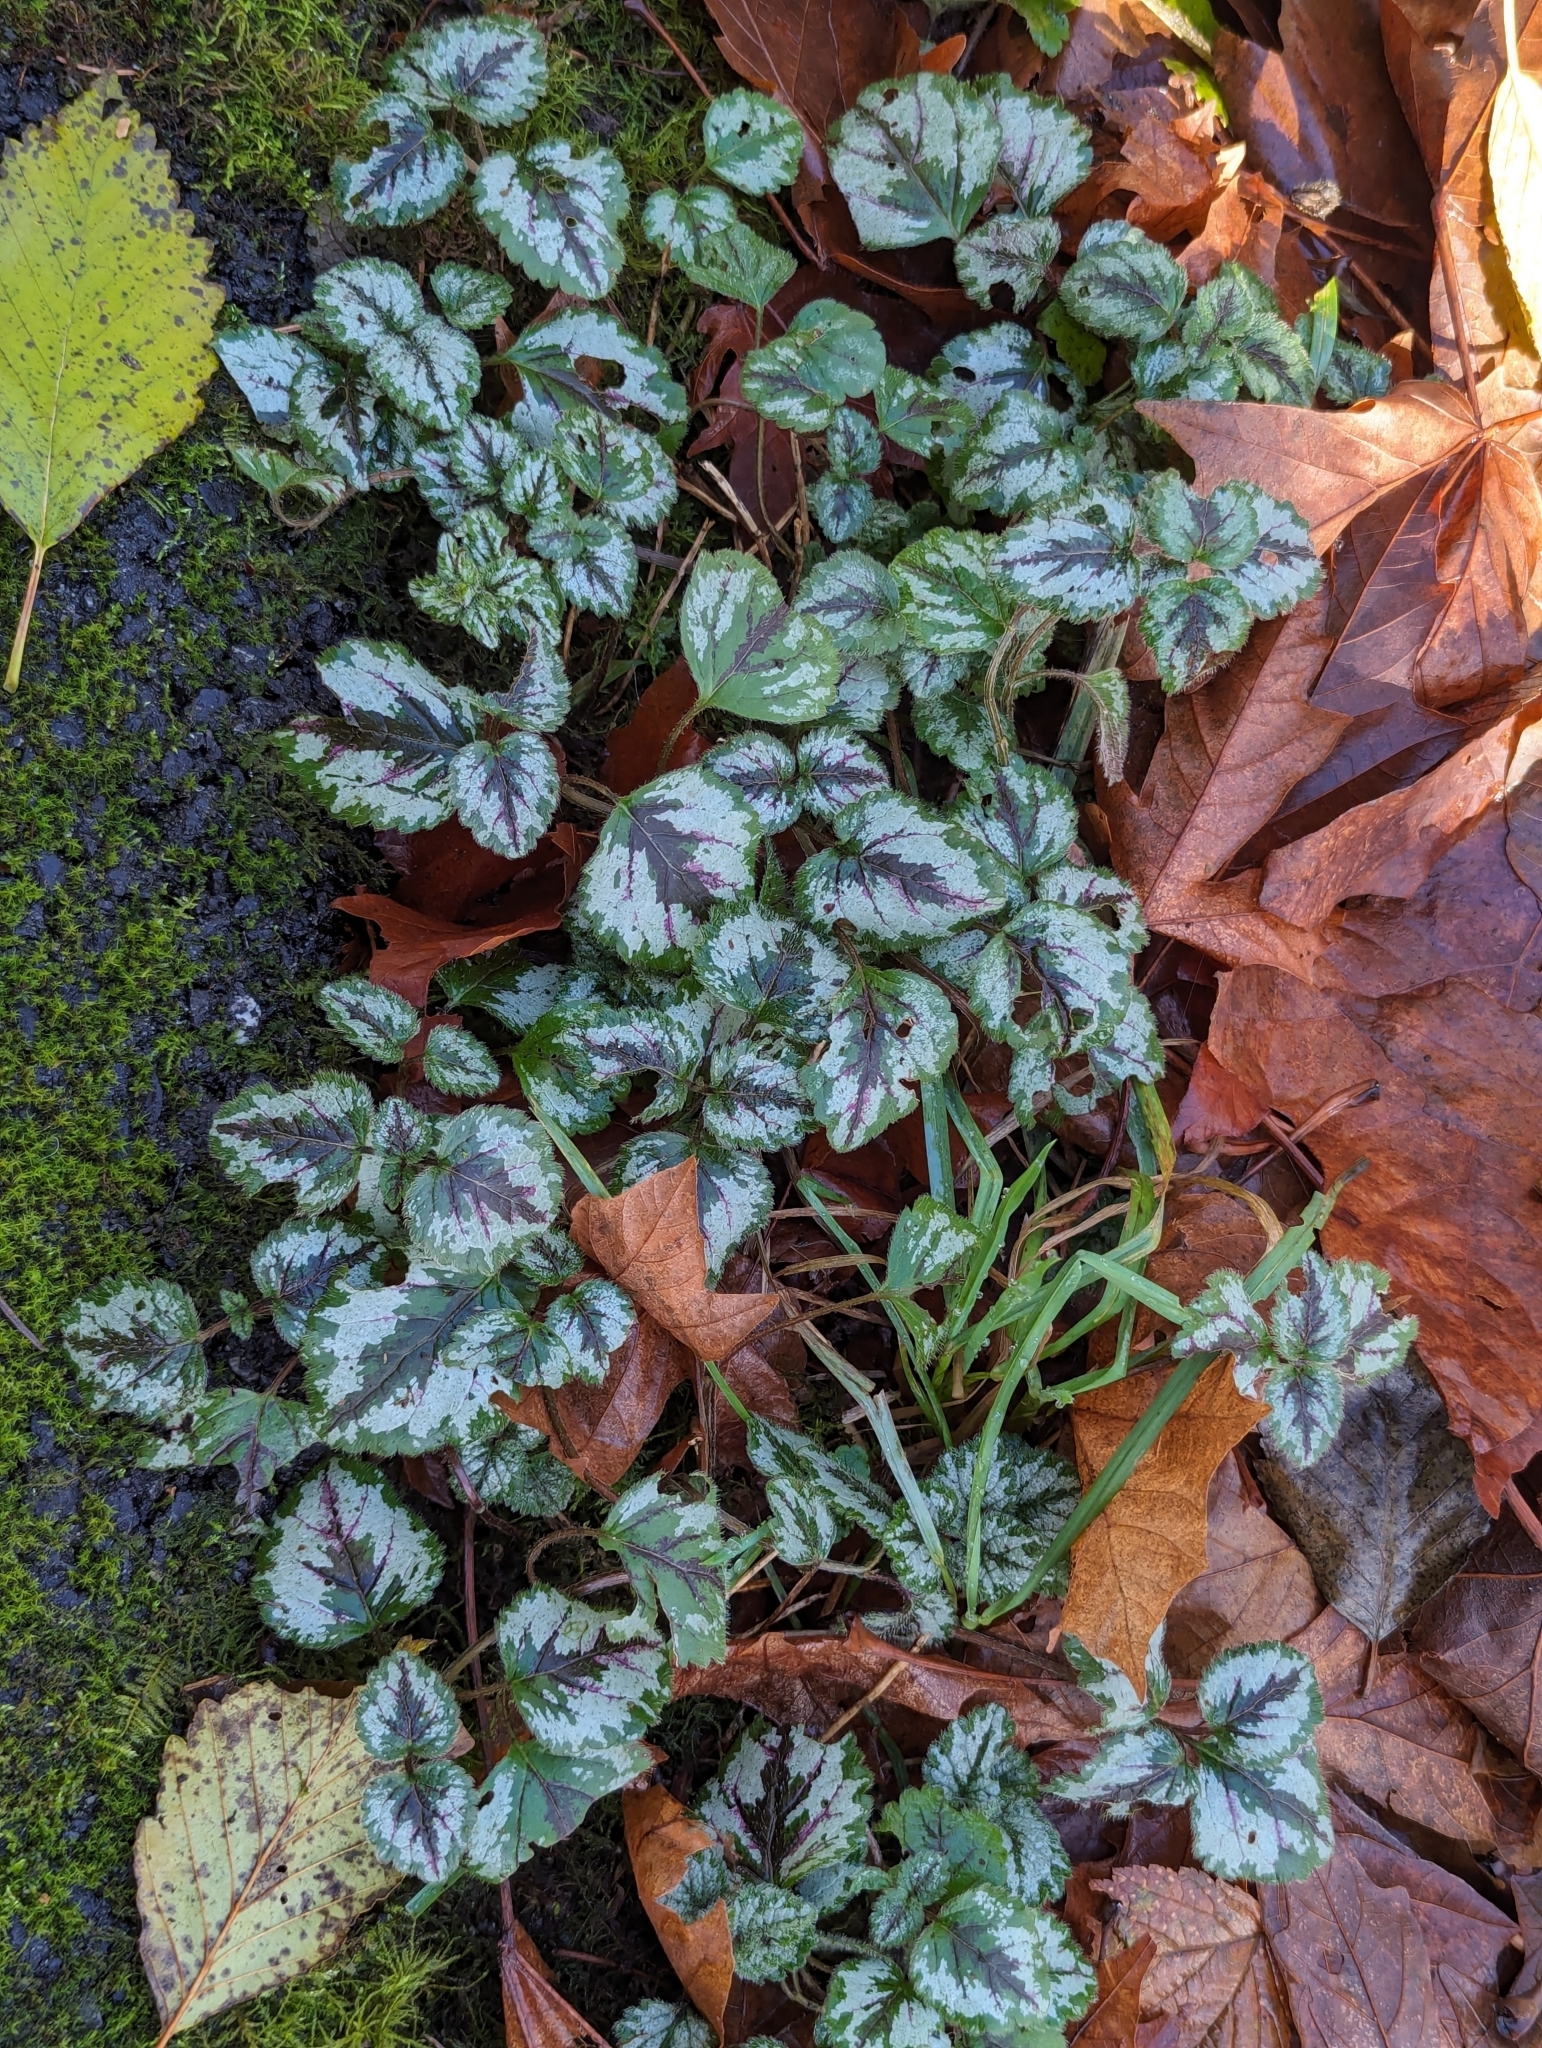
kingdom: Plantae
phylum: Tracheophyta
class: Magnoliopsida
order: Lamiales
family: Lamiaceae
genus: Lamium
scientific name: Lamium galeobdolon
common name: Yellow archangel
